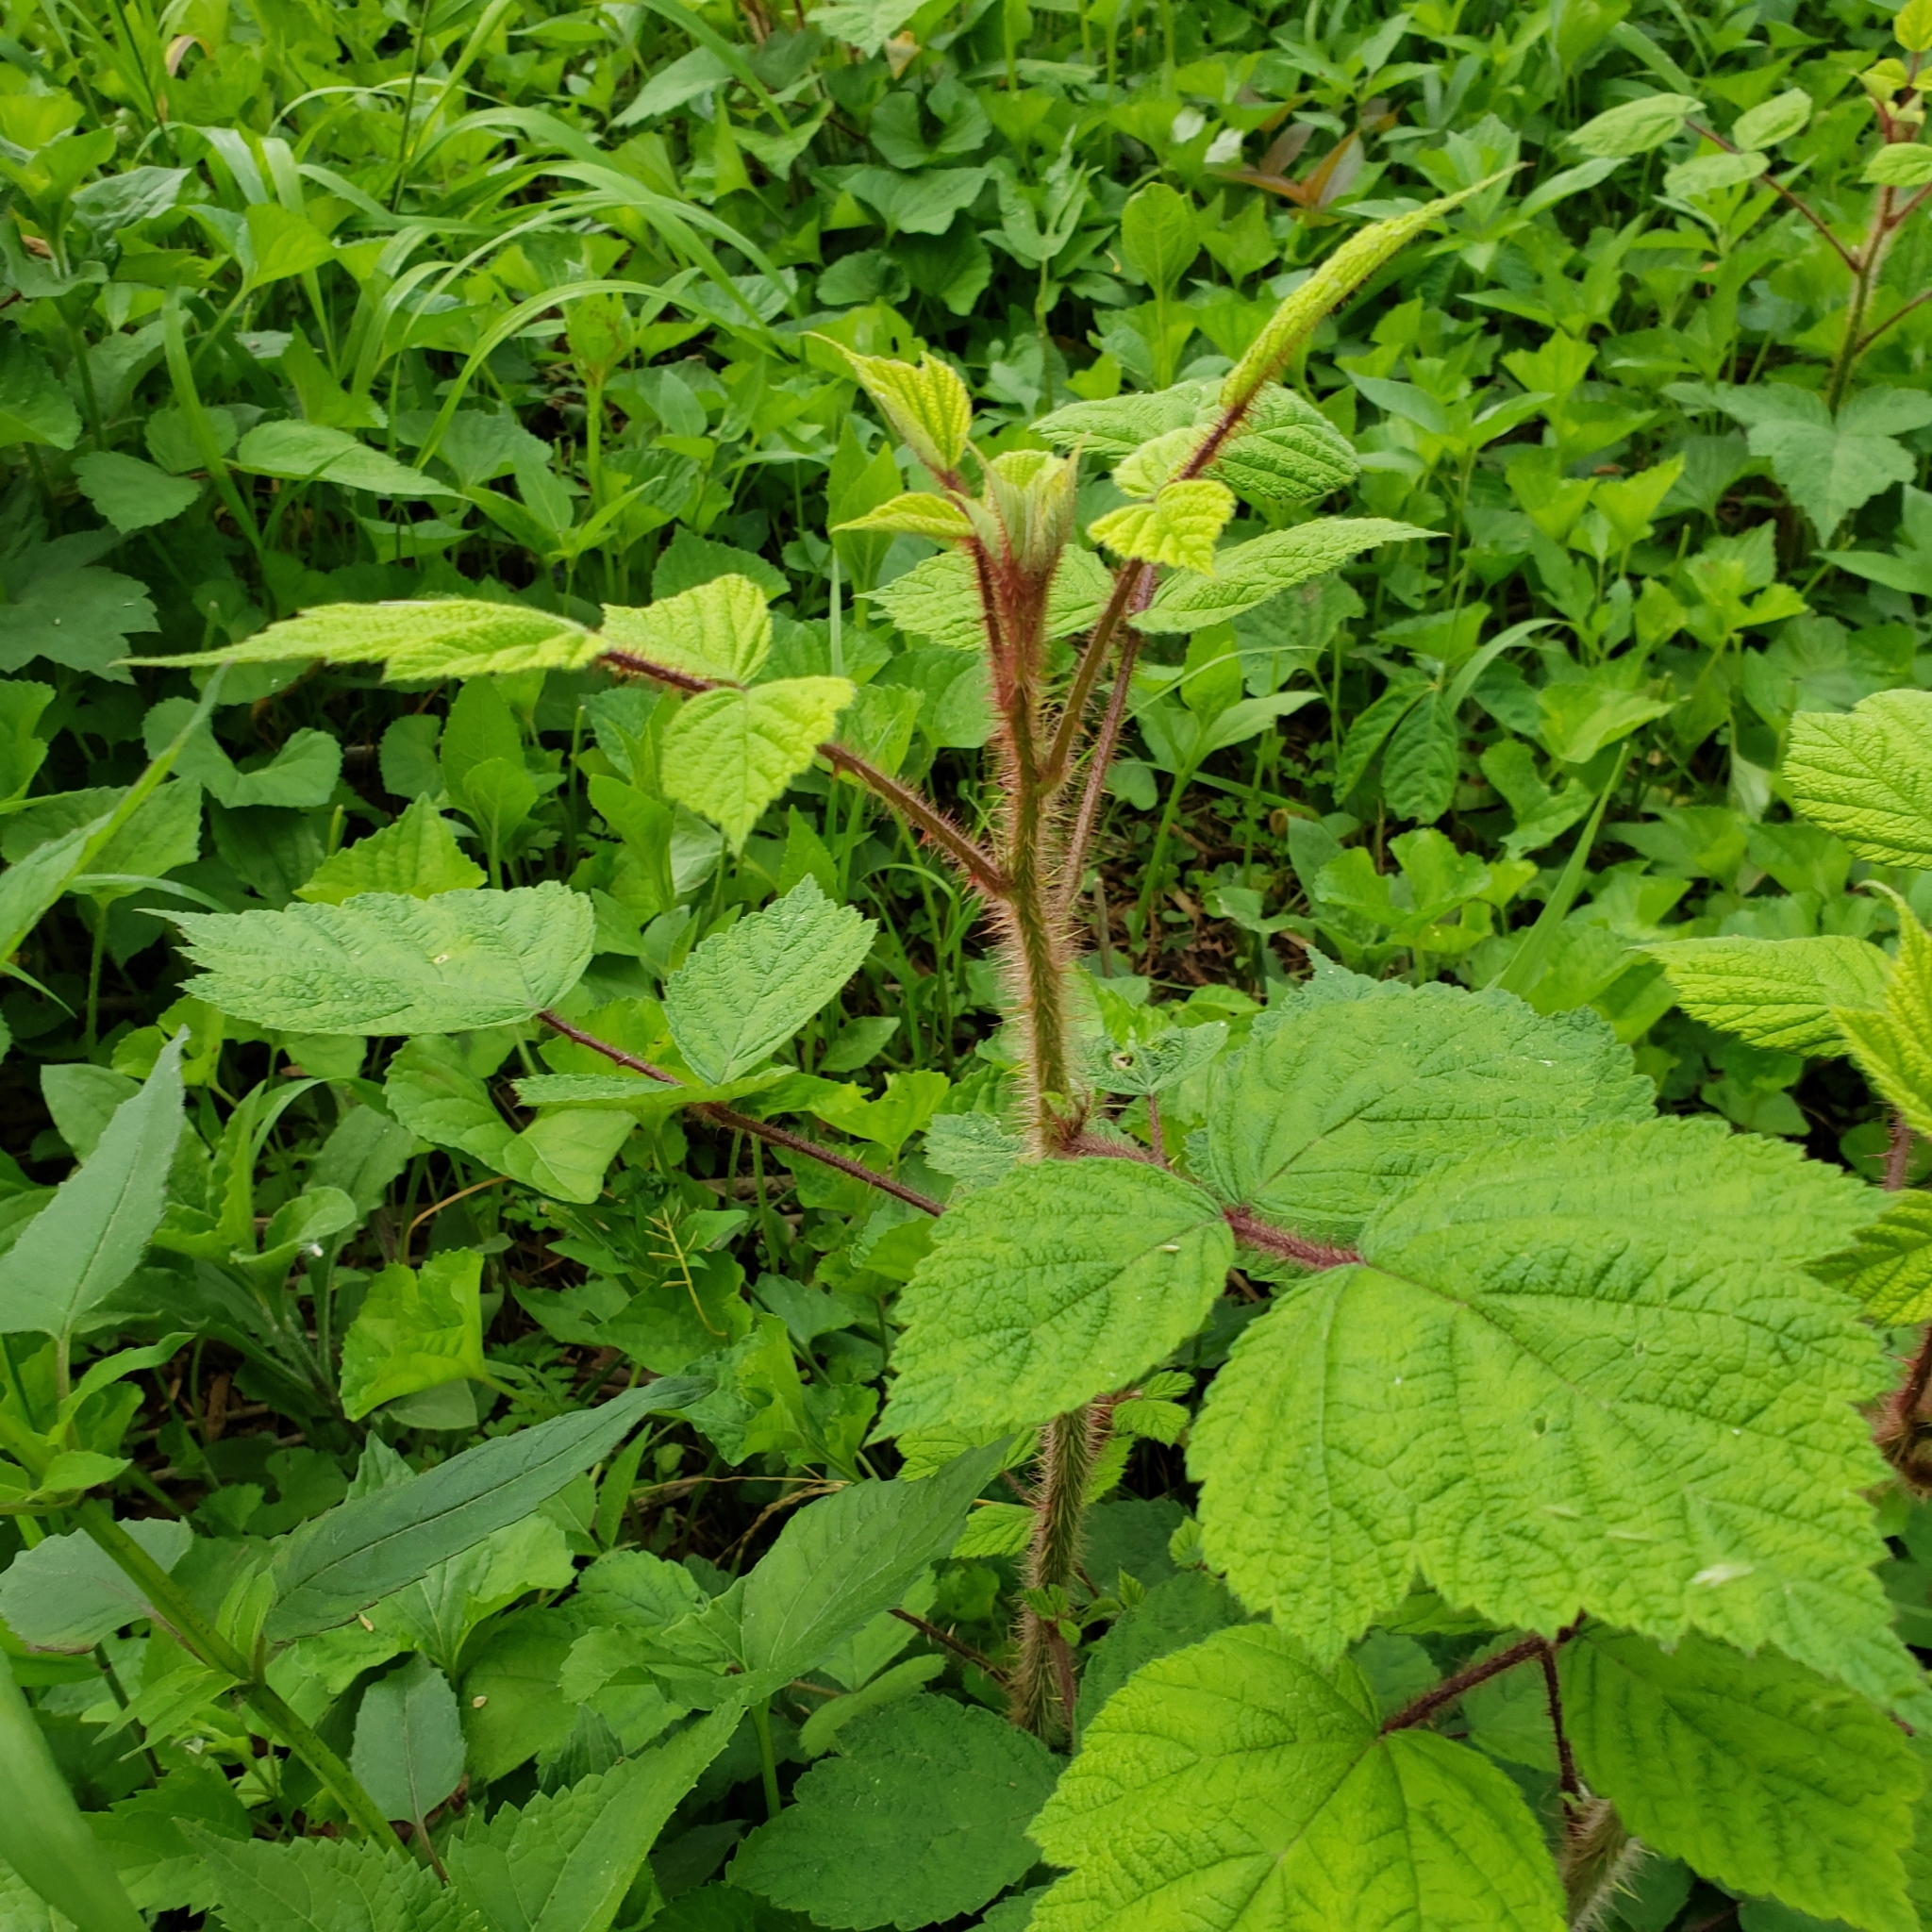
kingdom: Plantae
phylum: Tracheophyta
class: Magnoliopsida
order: Rosales
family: Rosaceae
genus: Rubus
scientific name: Rubus phoenicolasius
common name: Japanese wineberry
